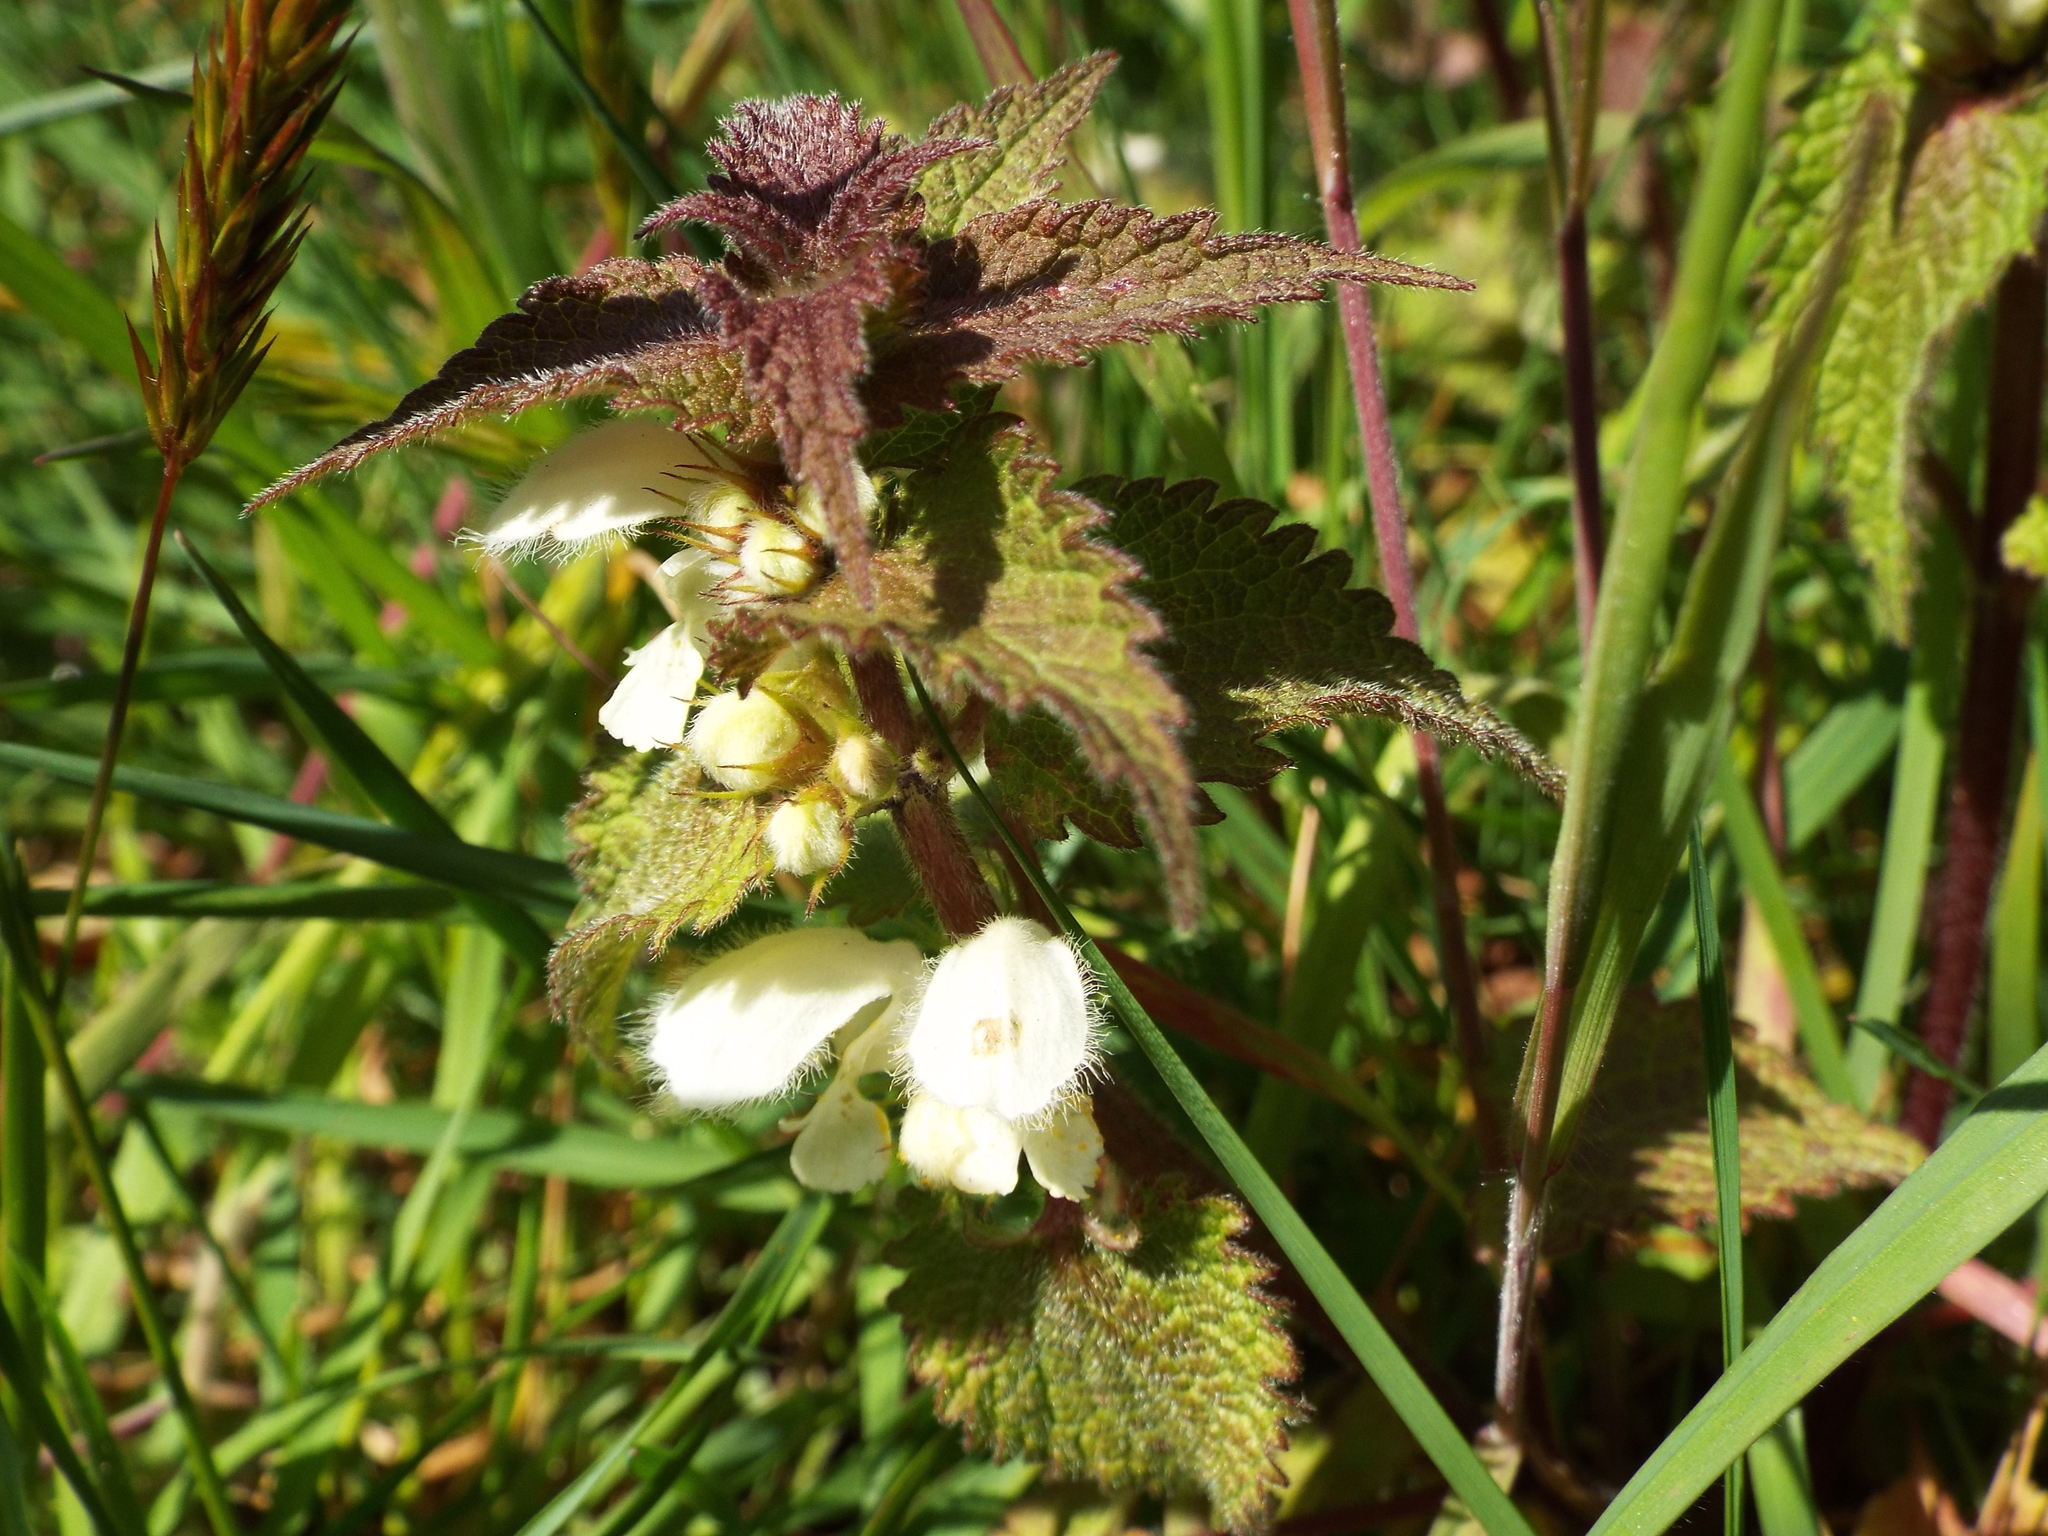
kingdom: Plantae
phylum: Tracheophyta
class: Magnoliopsida
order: Lamiales
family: Lamiaceae
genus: Lamium
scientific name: Lamium album
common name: White dead-nettle
